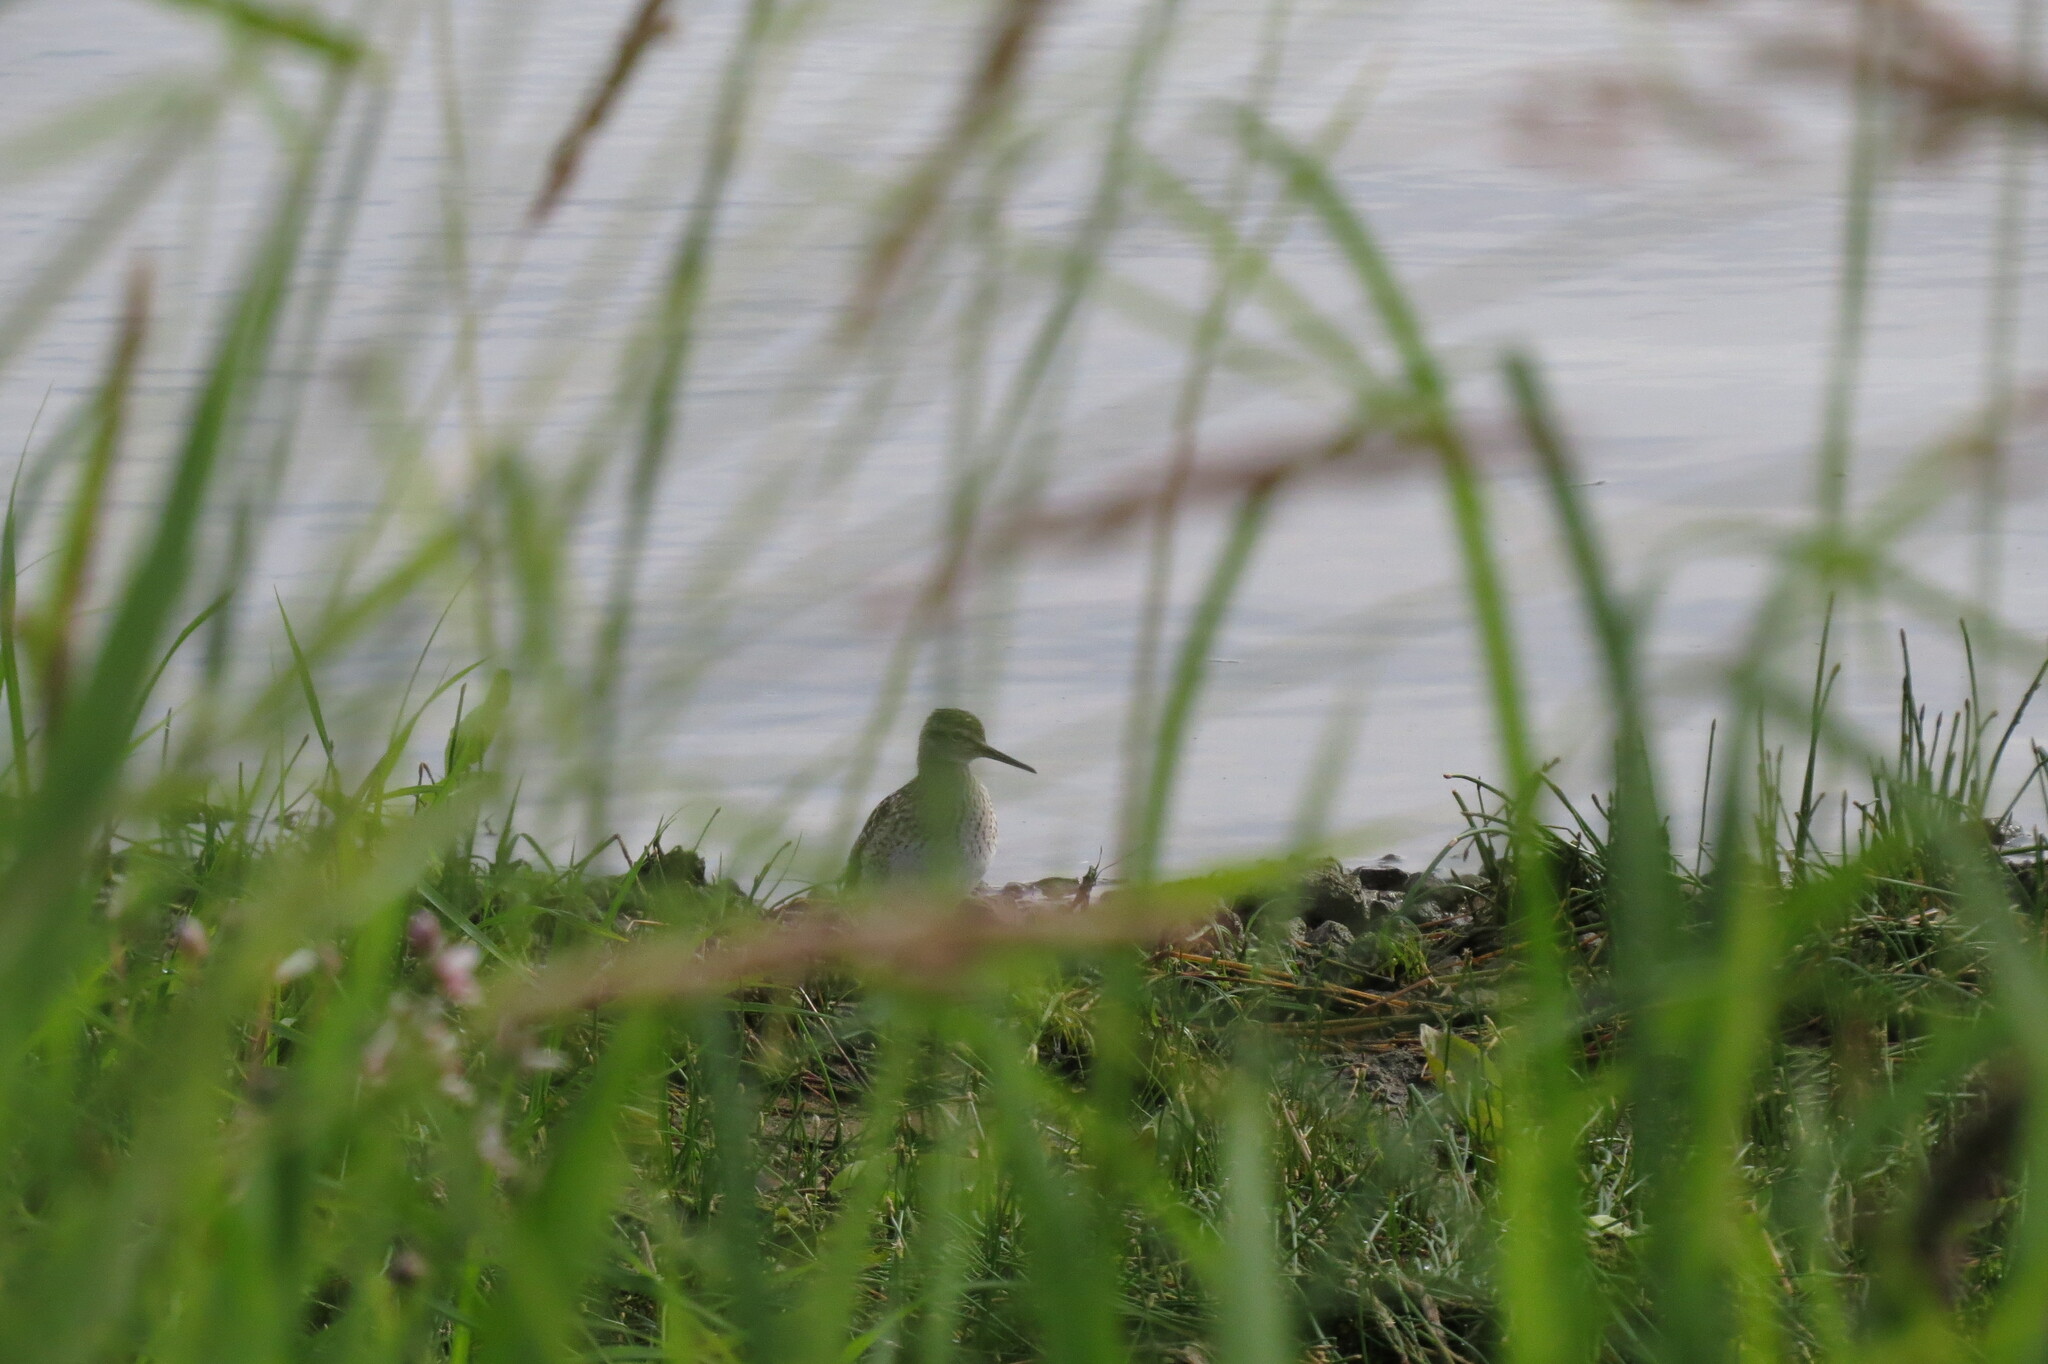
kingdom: Animalia
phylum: Chordata
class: Aves
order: Charadriiformes
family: Scolopacidae
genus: Tringa
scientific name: Tringa glareola
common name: Wood sandpiper
